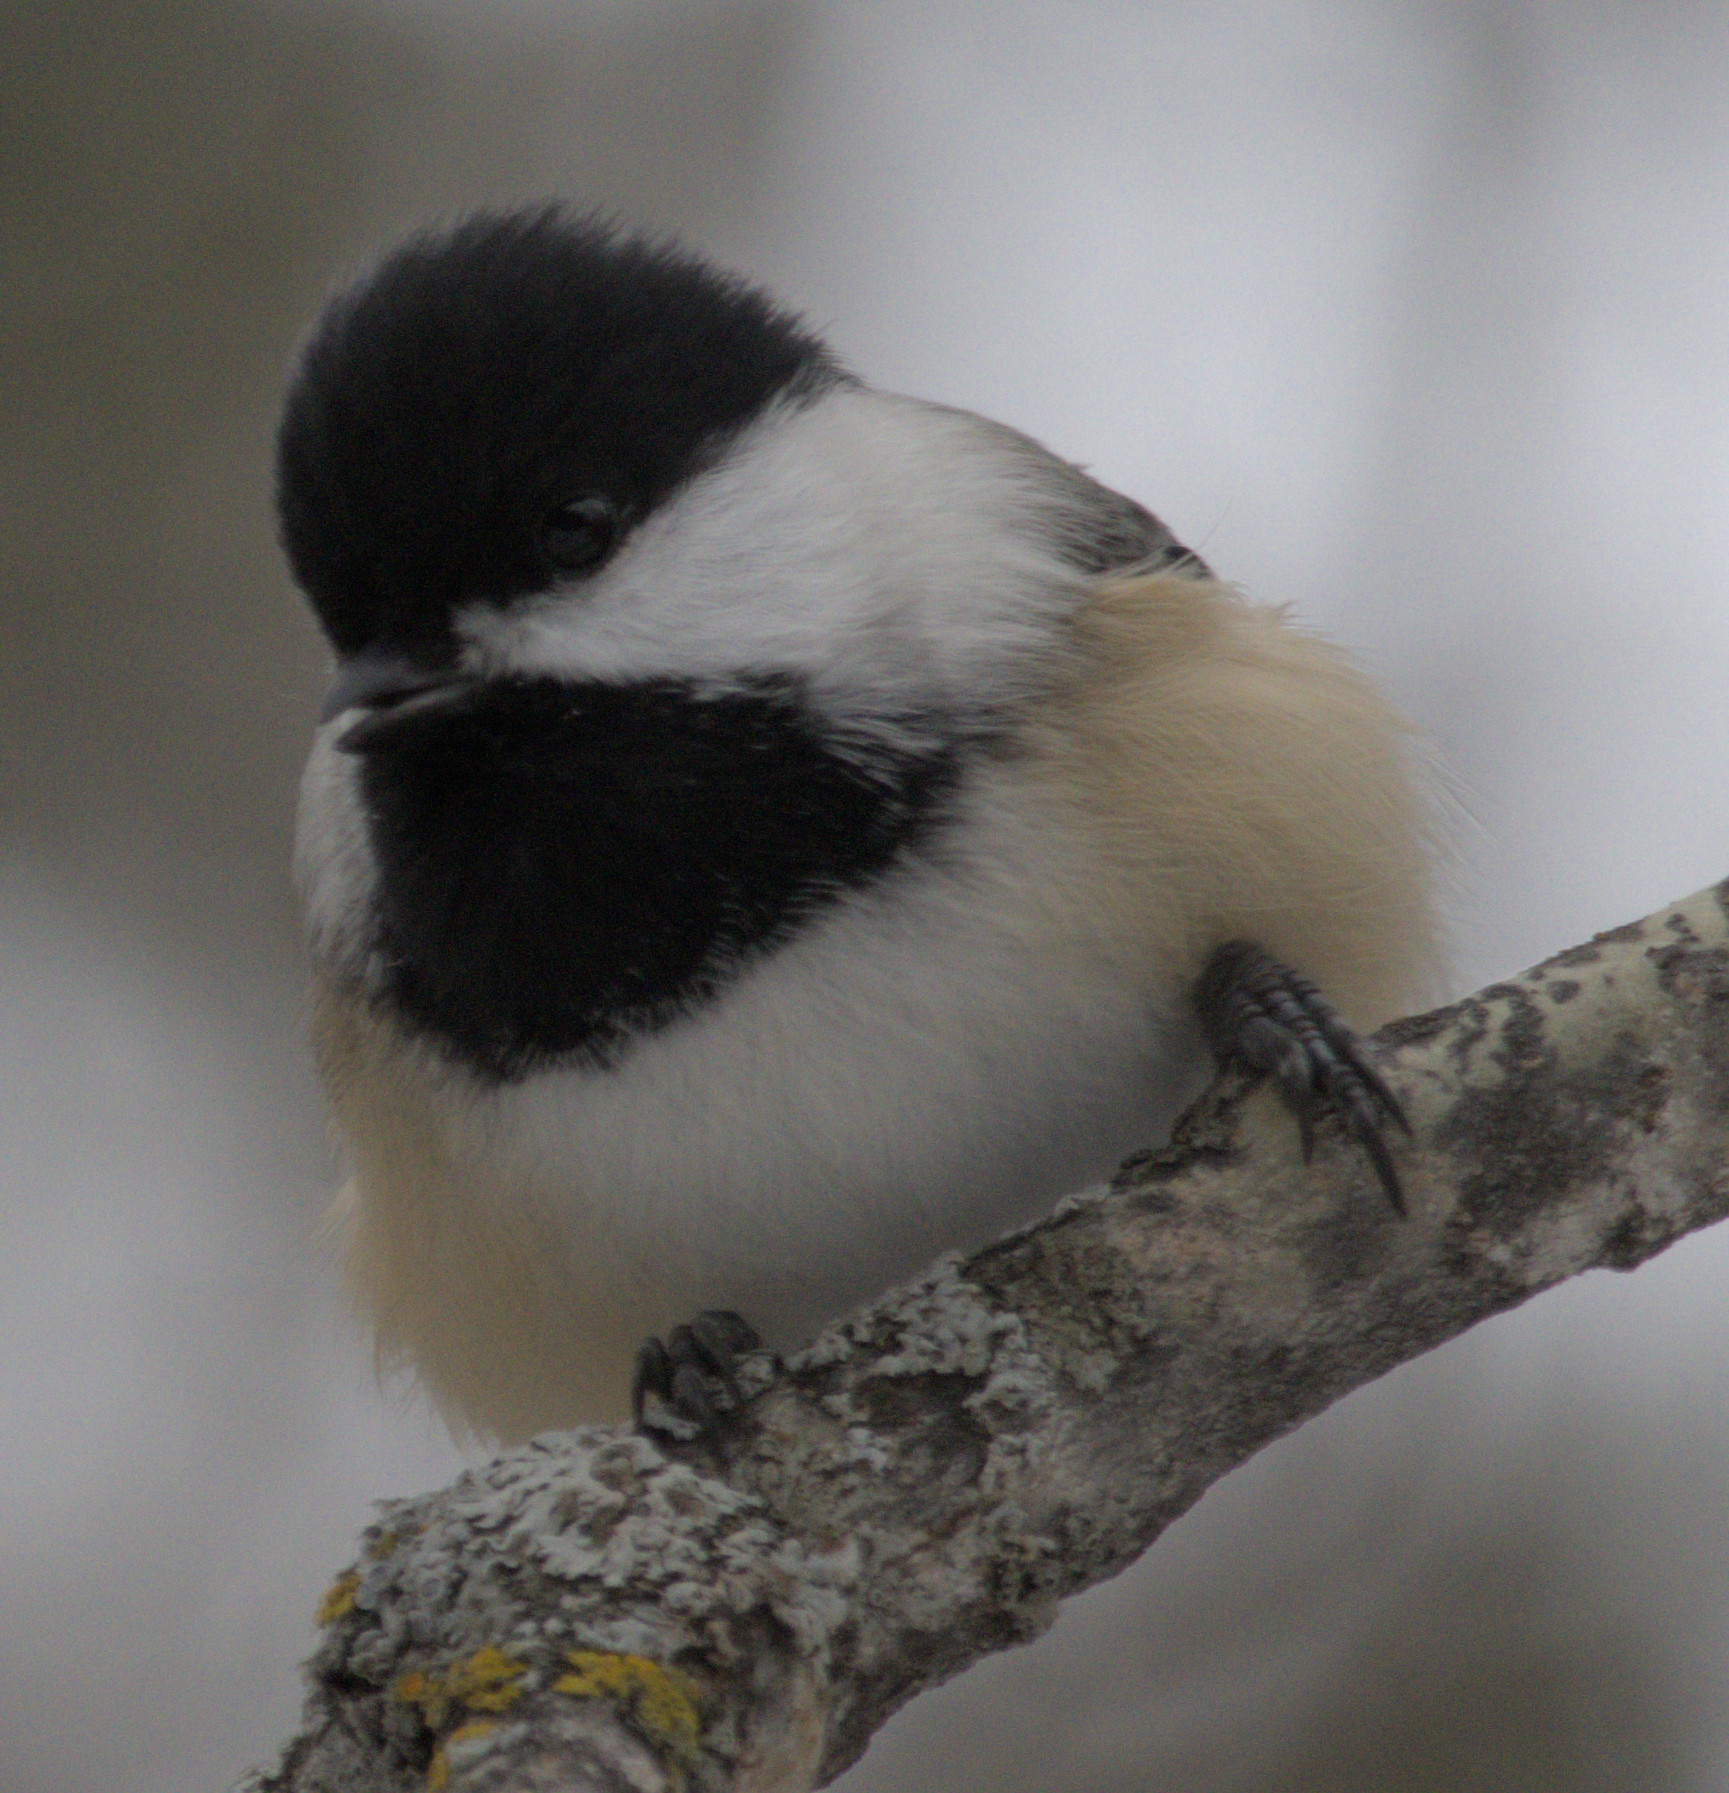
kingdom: Animalia
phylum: Chordata
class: Aves
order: Passeriformes
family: Paridae
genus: Poecile
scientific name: Poecile atricapillus
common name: Black-capped chickadee
